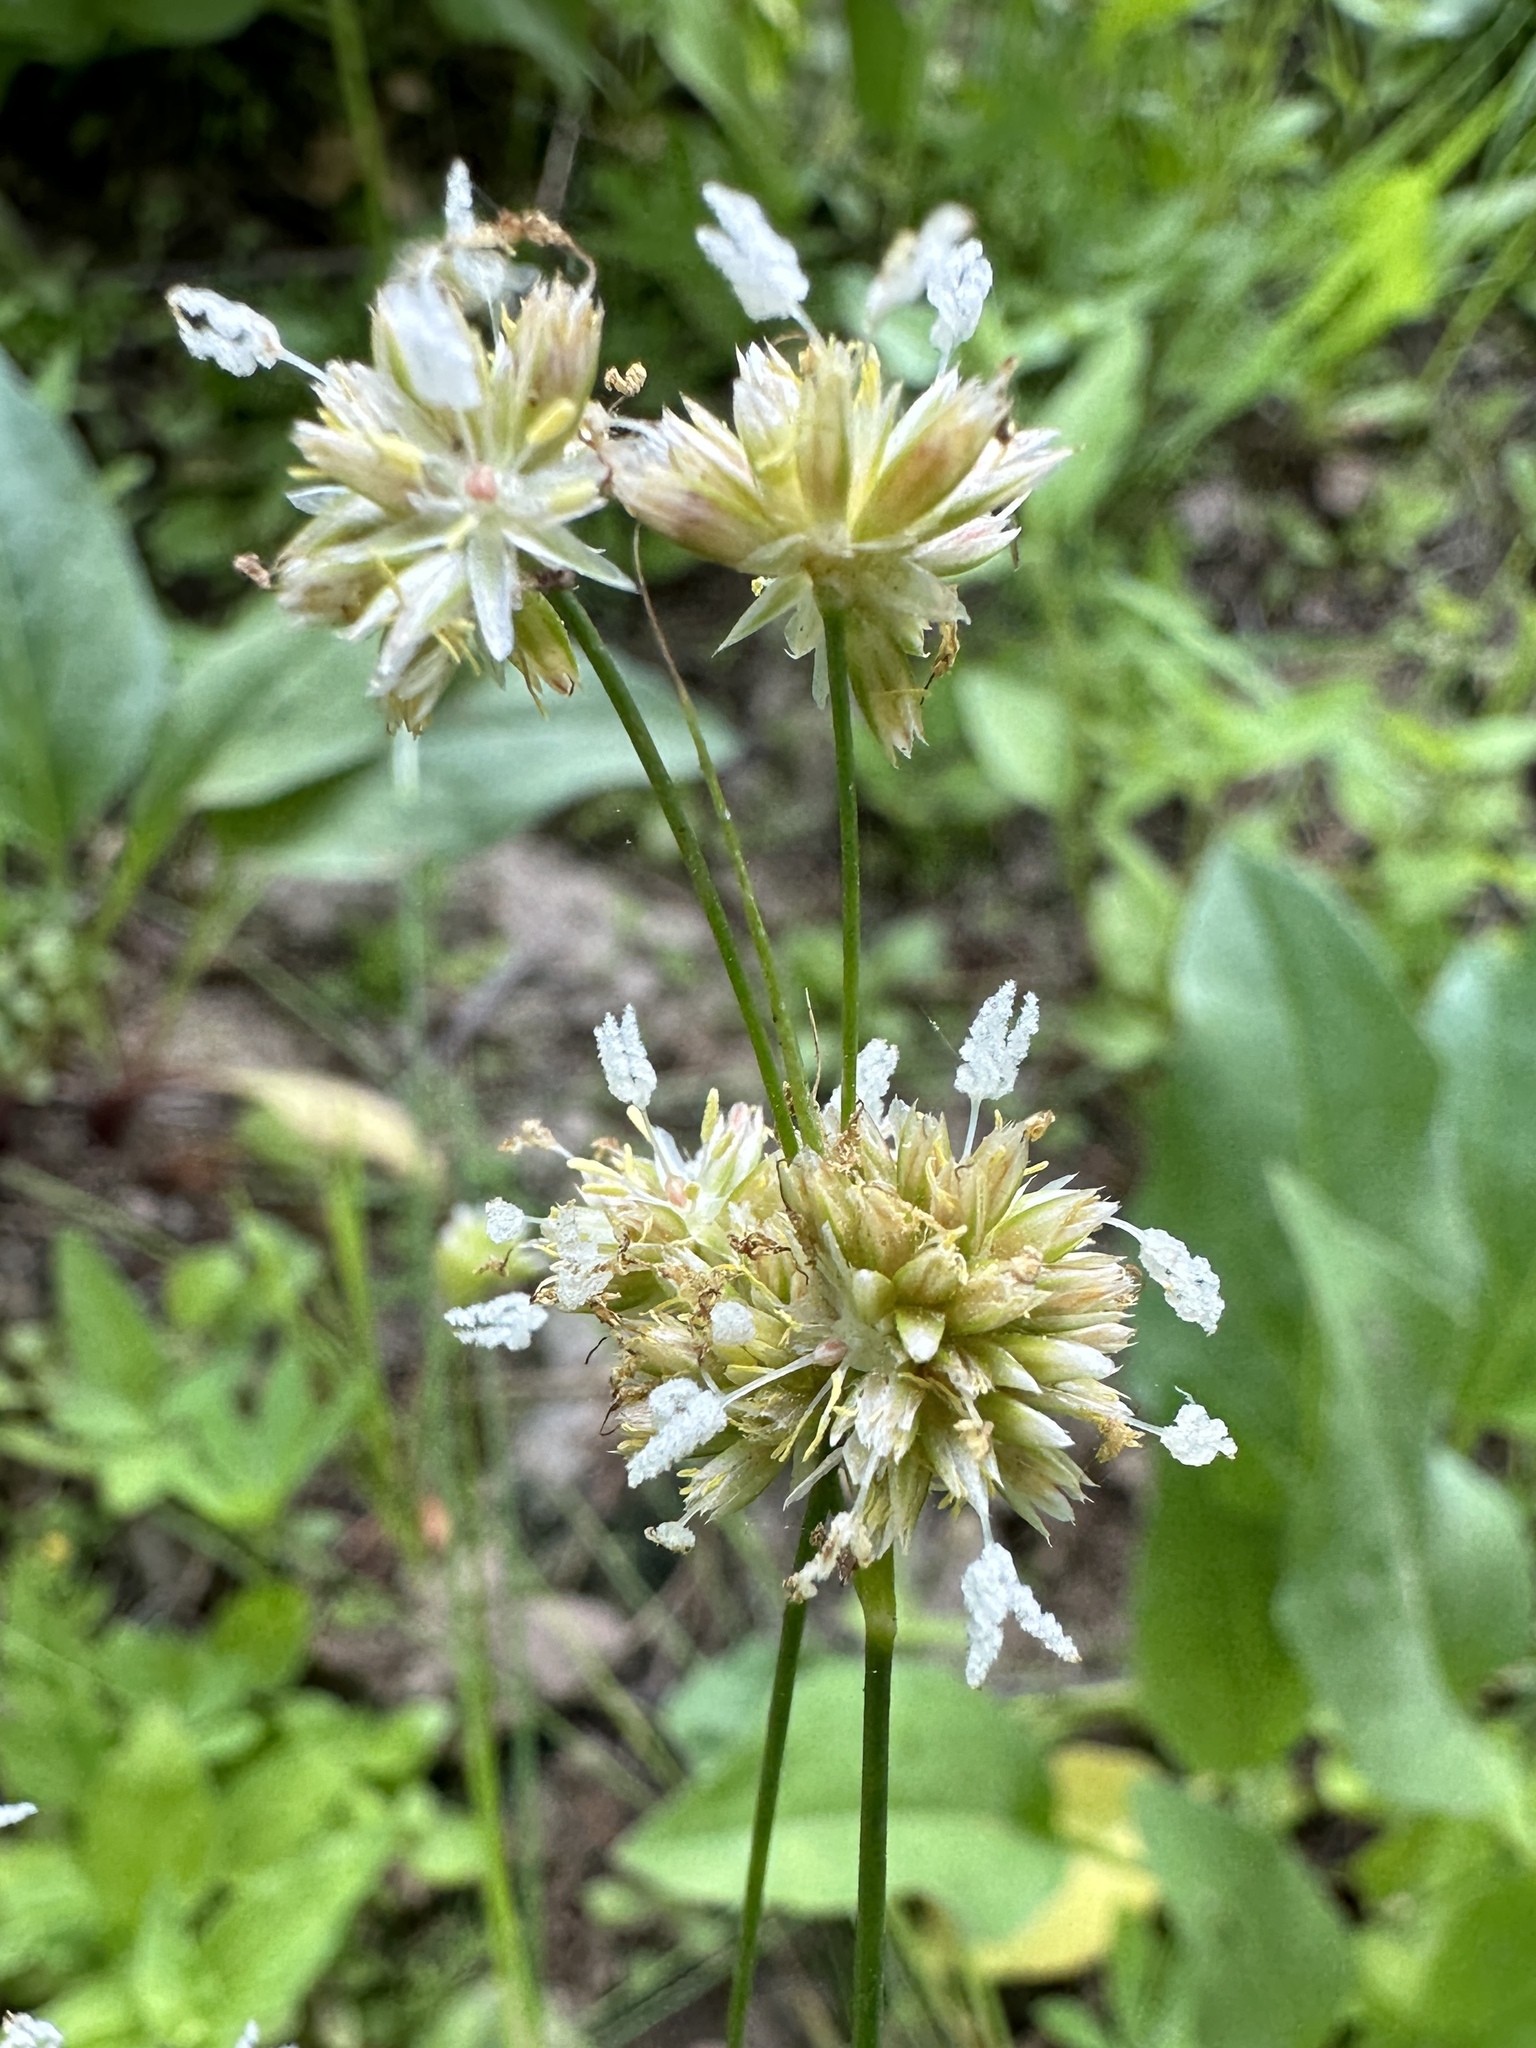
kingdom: Plantae
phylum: Tracheophyta
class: Liliopsida
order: Poales
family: Juncaceae
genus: Juncus
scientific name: Juncus chlorocephalus
